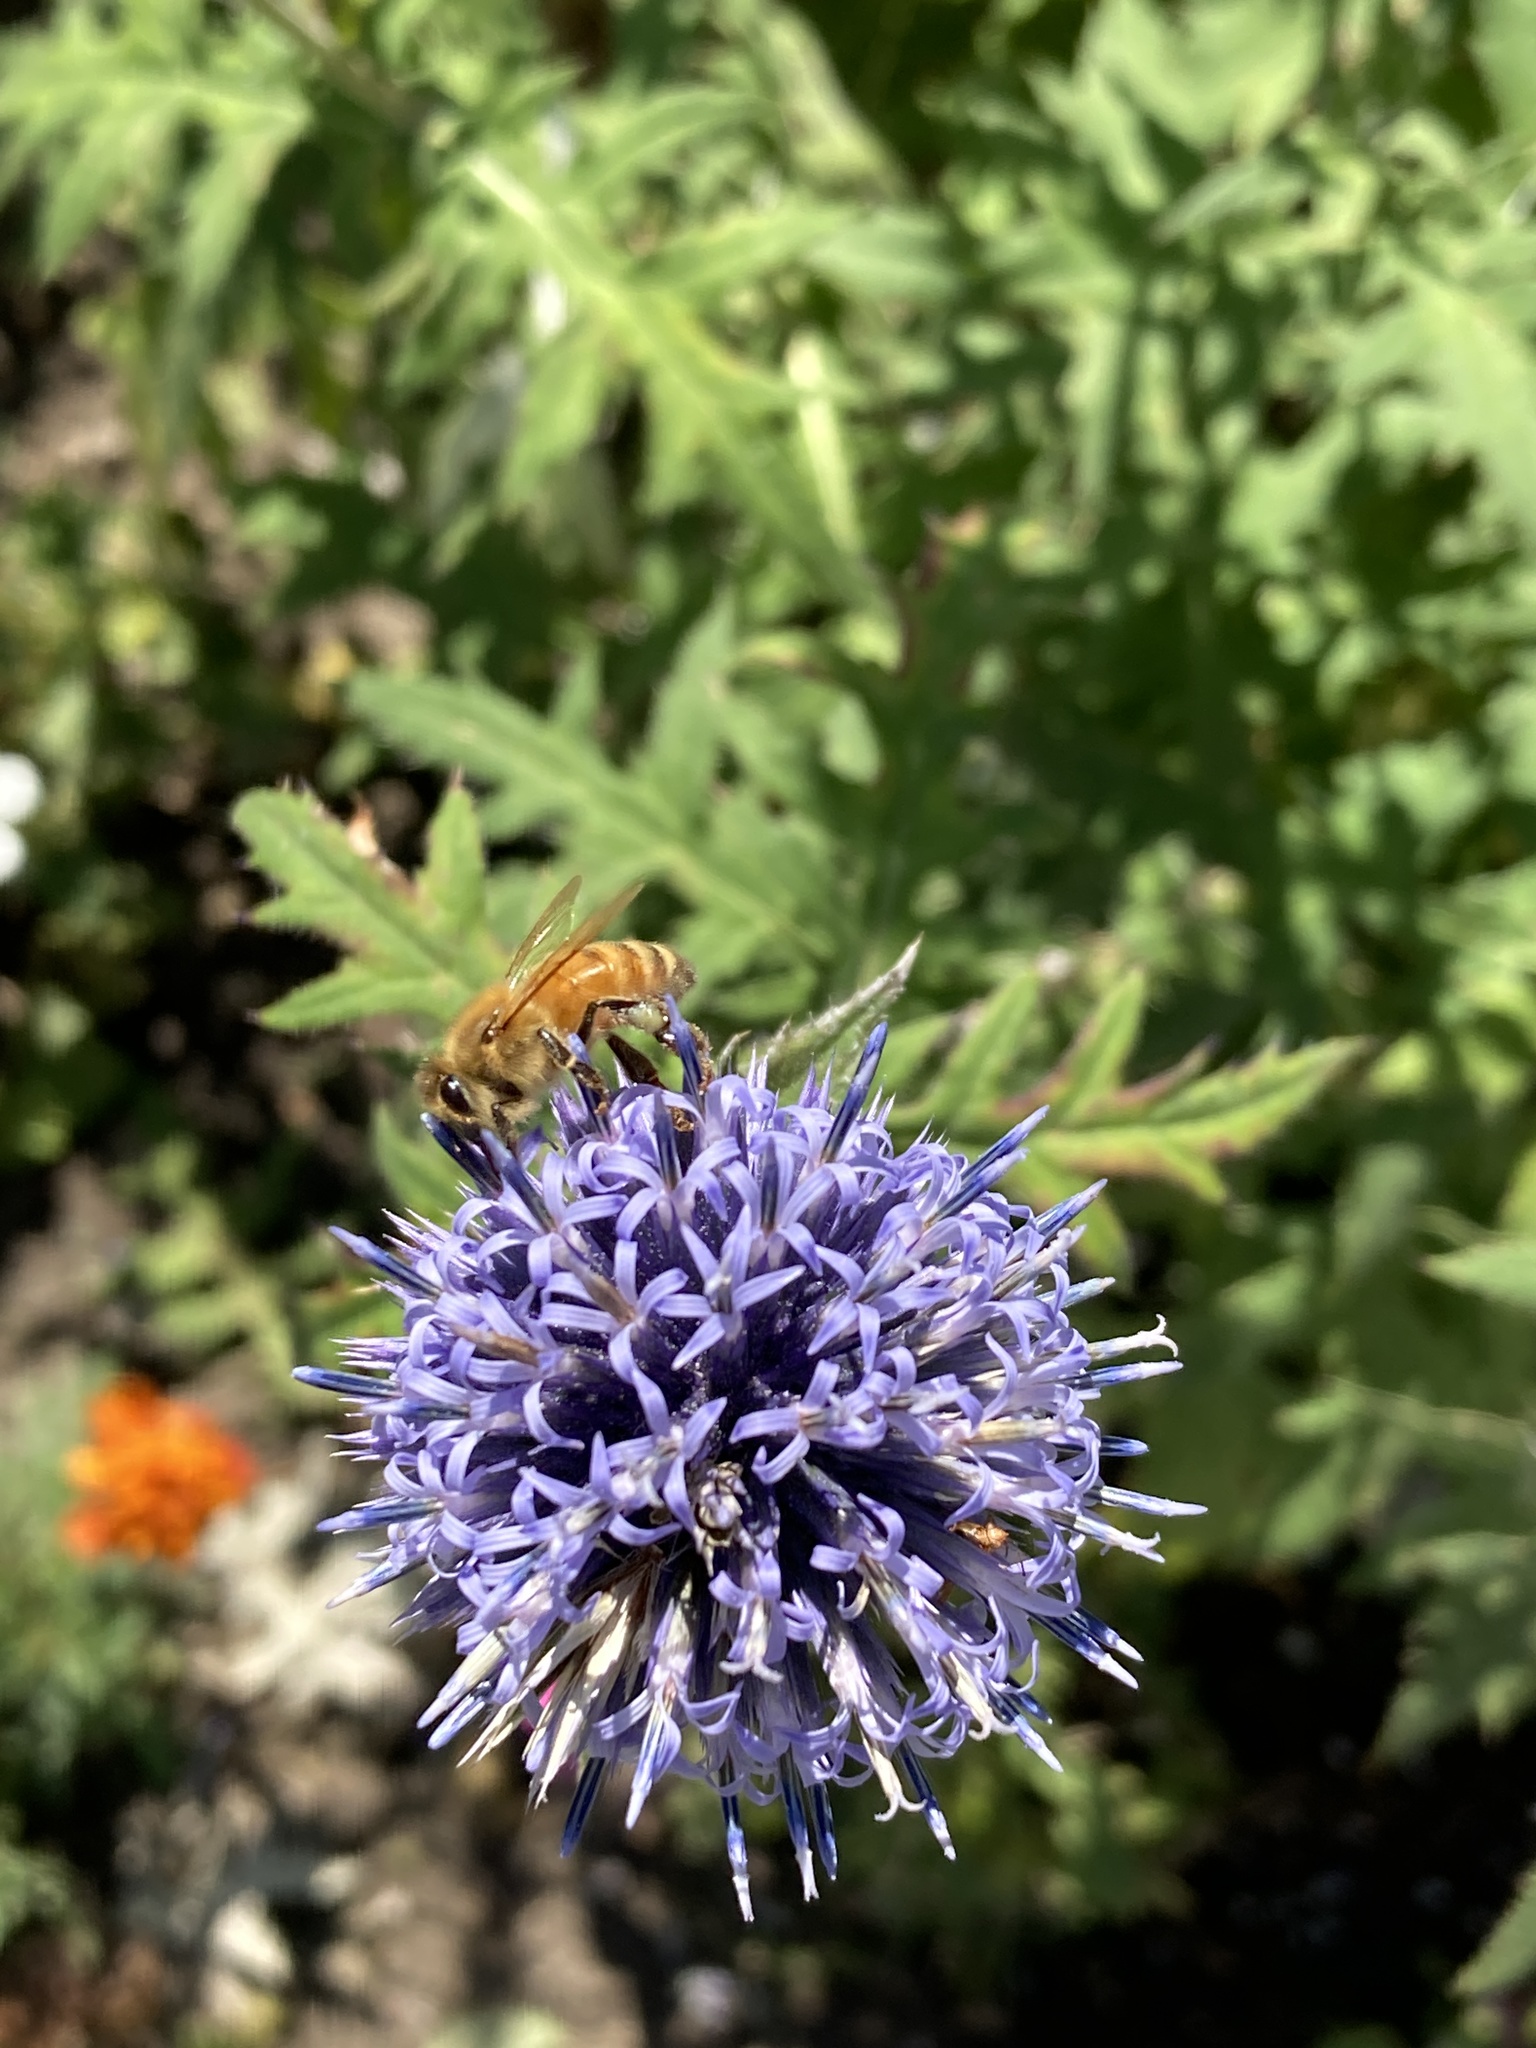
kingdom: Animalia
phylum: Arthropoda
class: Insecta
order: Hymenoptera
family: Apidae
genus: Apis
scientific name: Apis mellifera
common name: Honey bee
